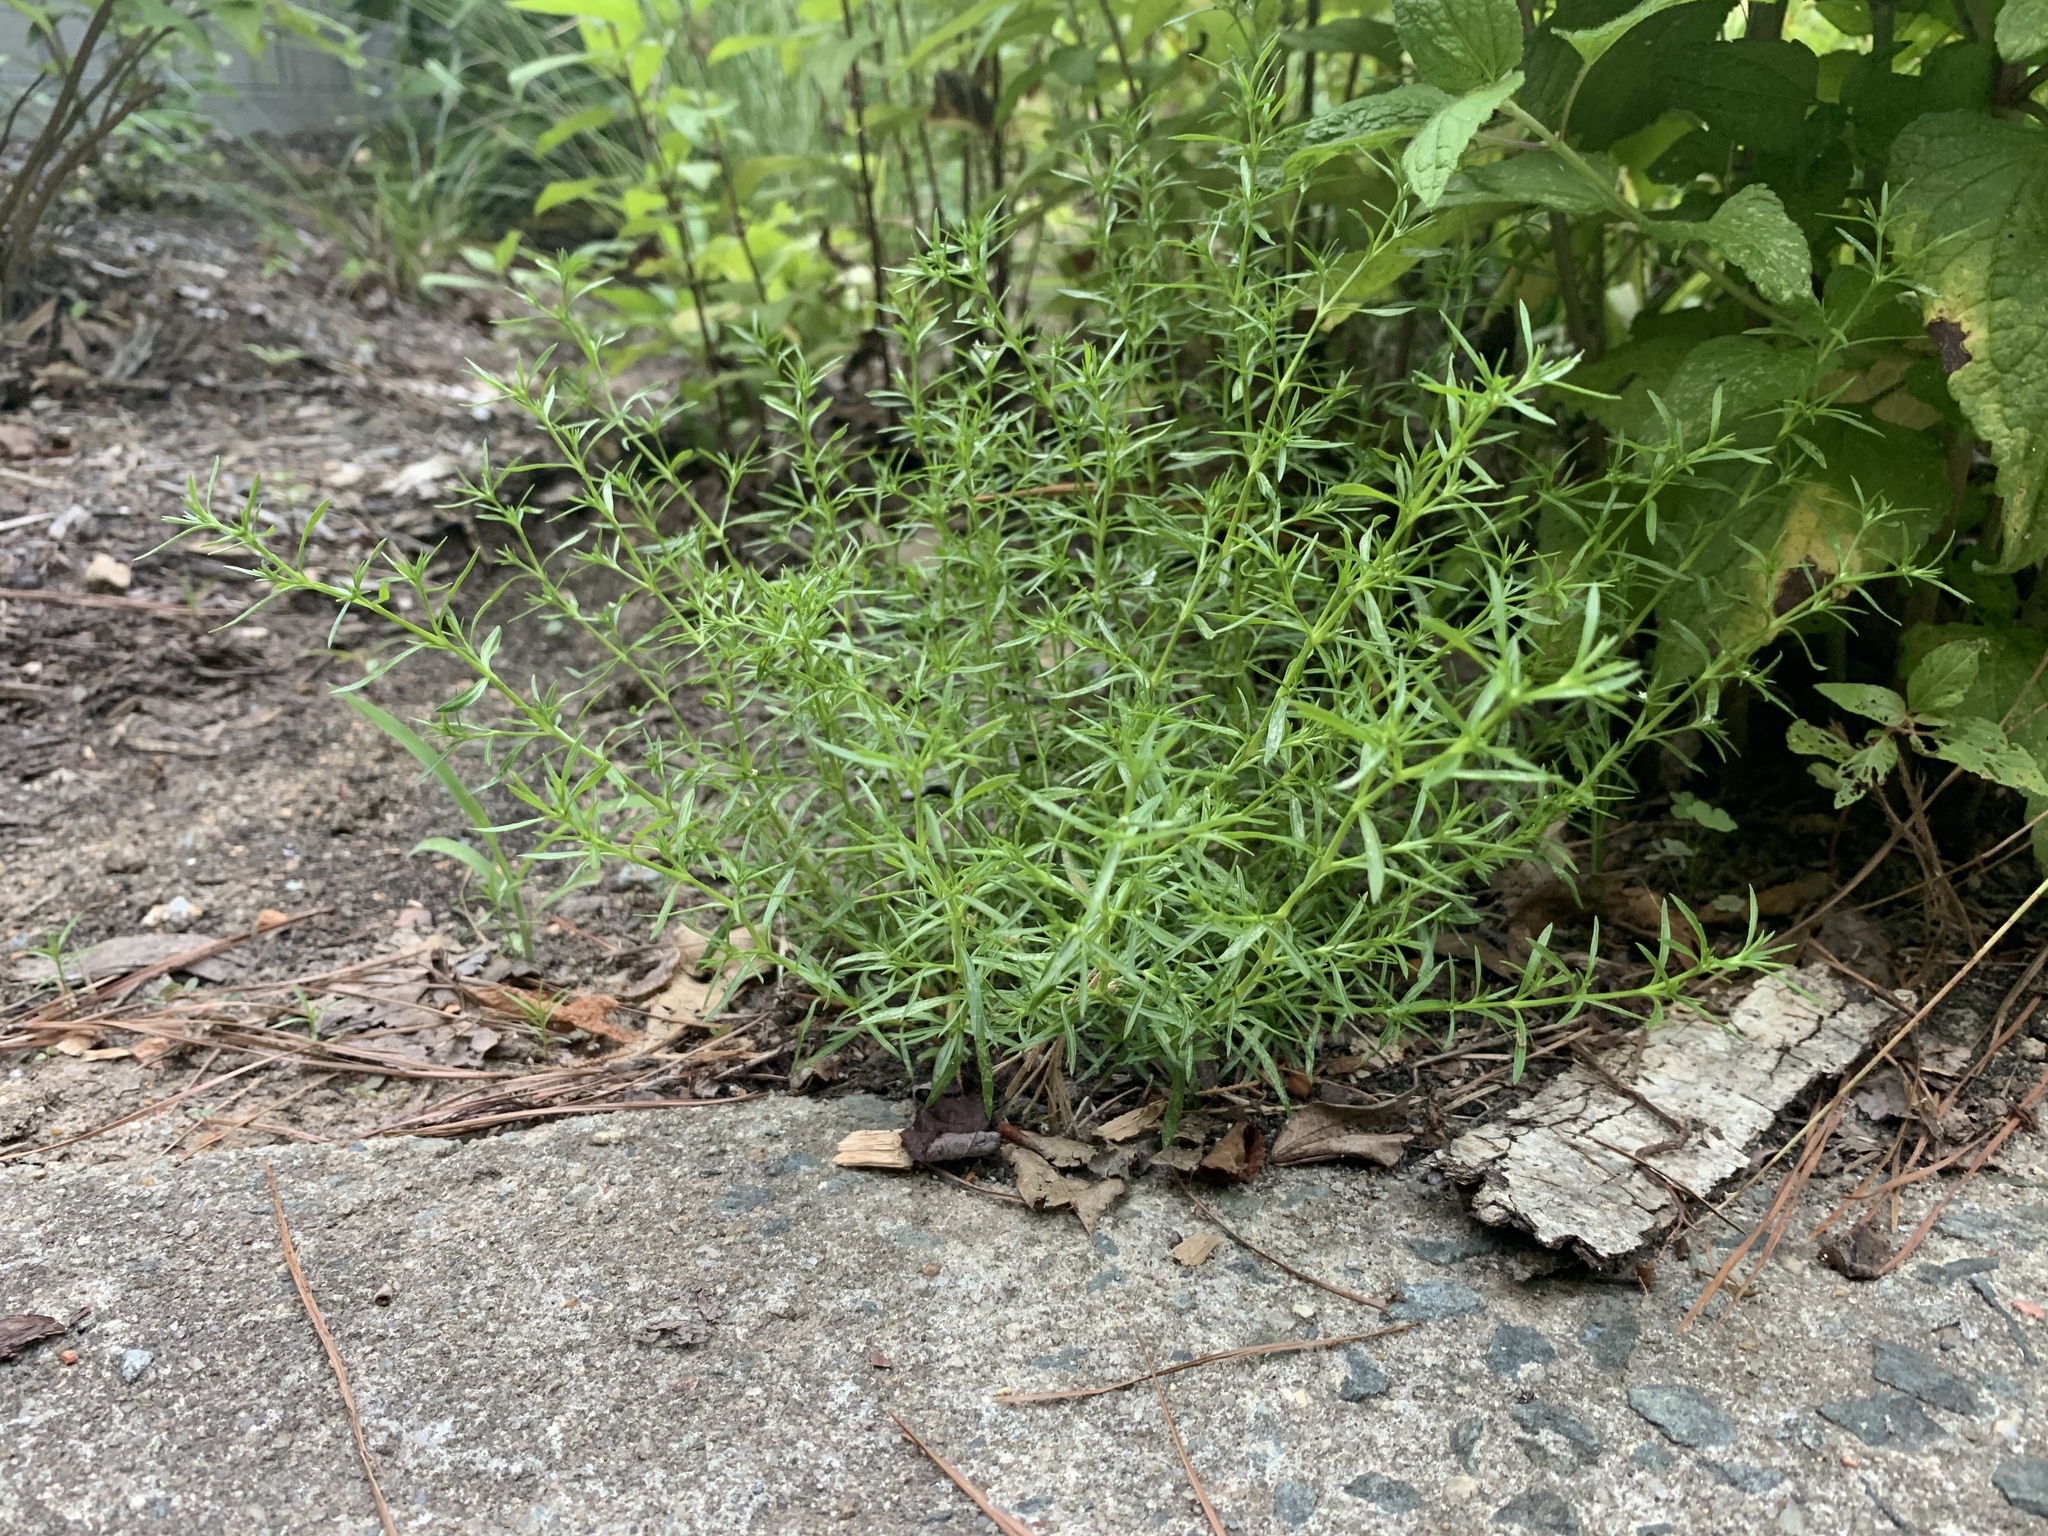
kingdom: Plantae
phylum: Tracheophyta
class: Magnoliopsida
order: Lamiales
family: Tetrachondraceae
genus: Polypremum
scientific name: Polypremum procumbens
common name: Juniper-leaf
